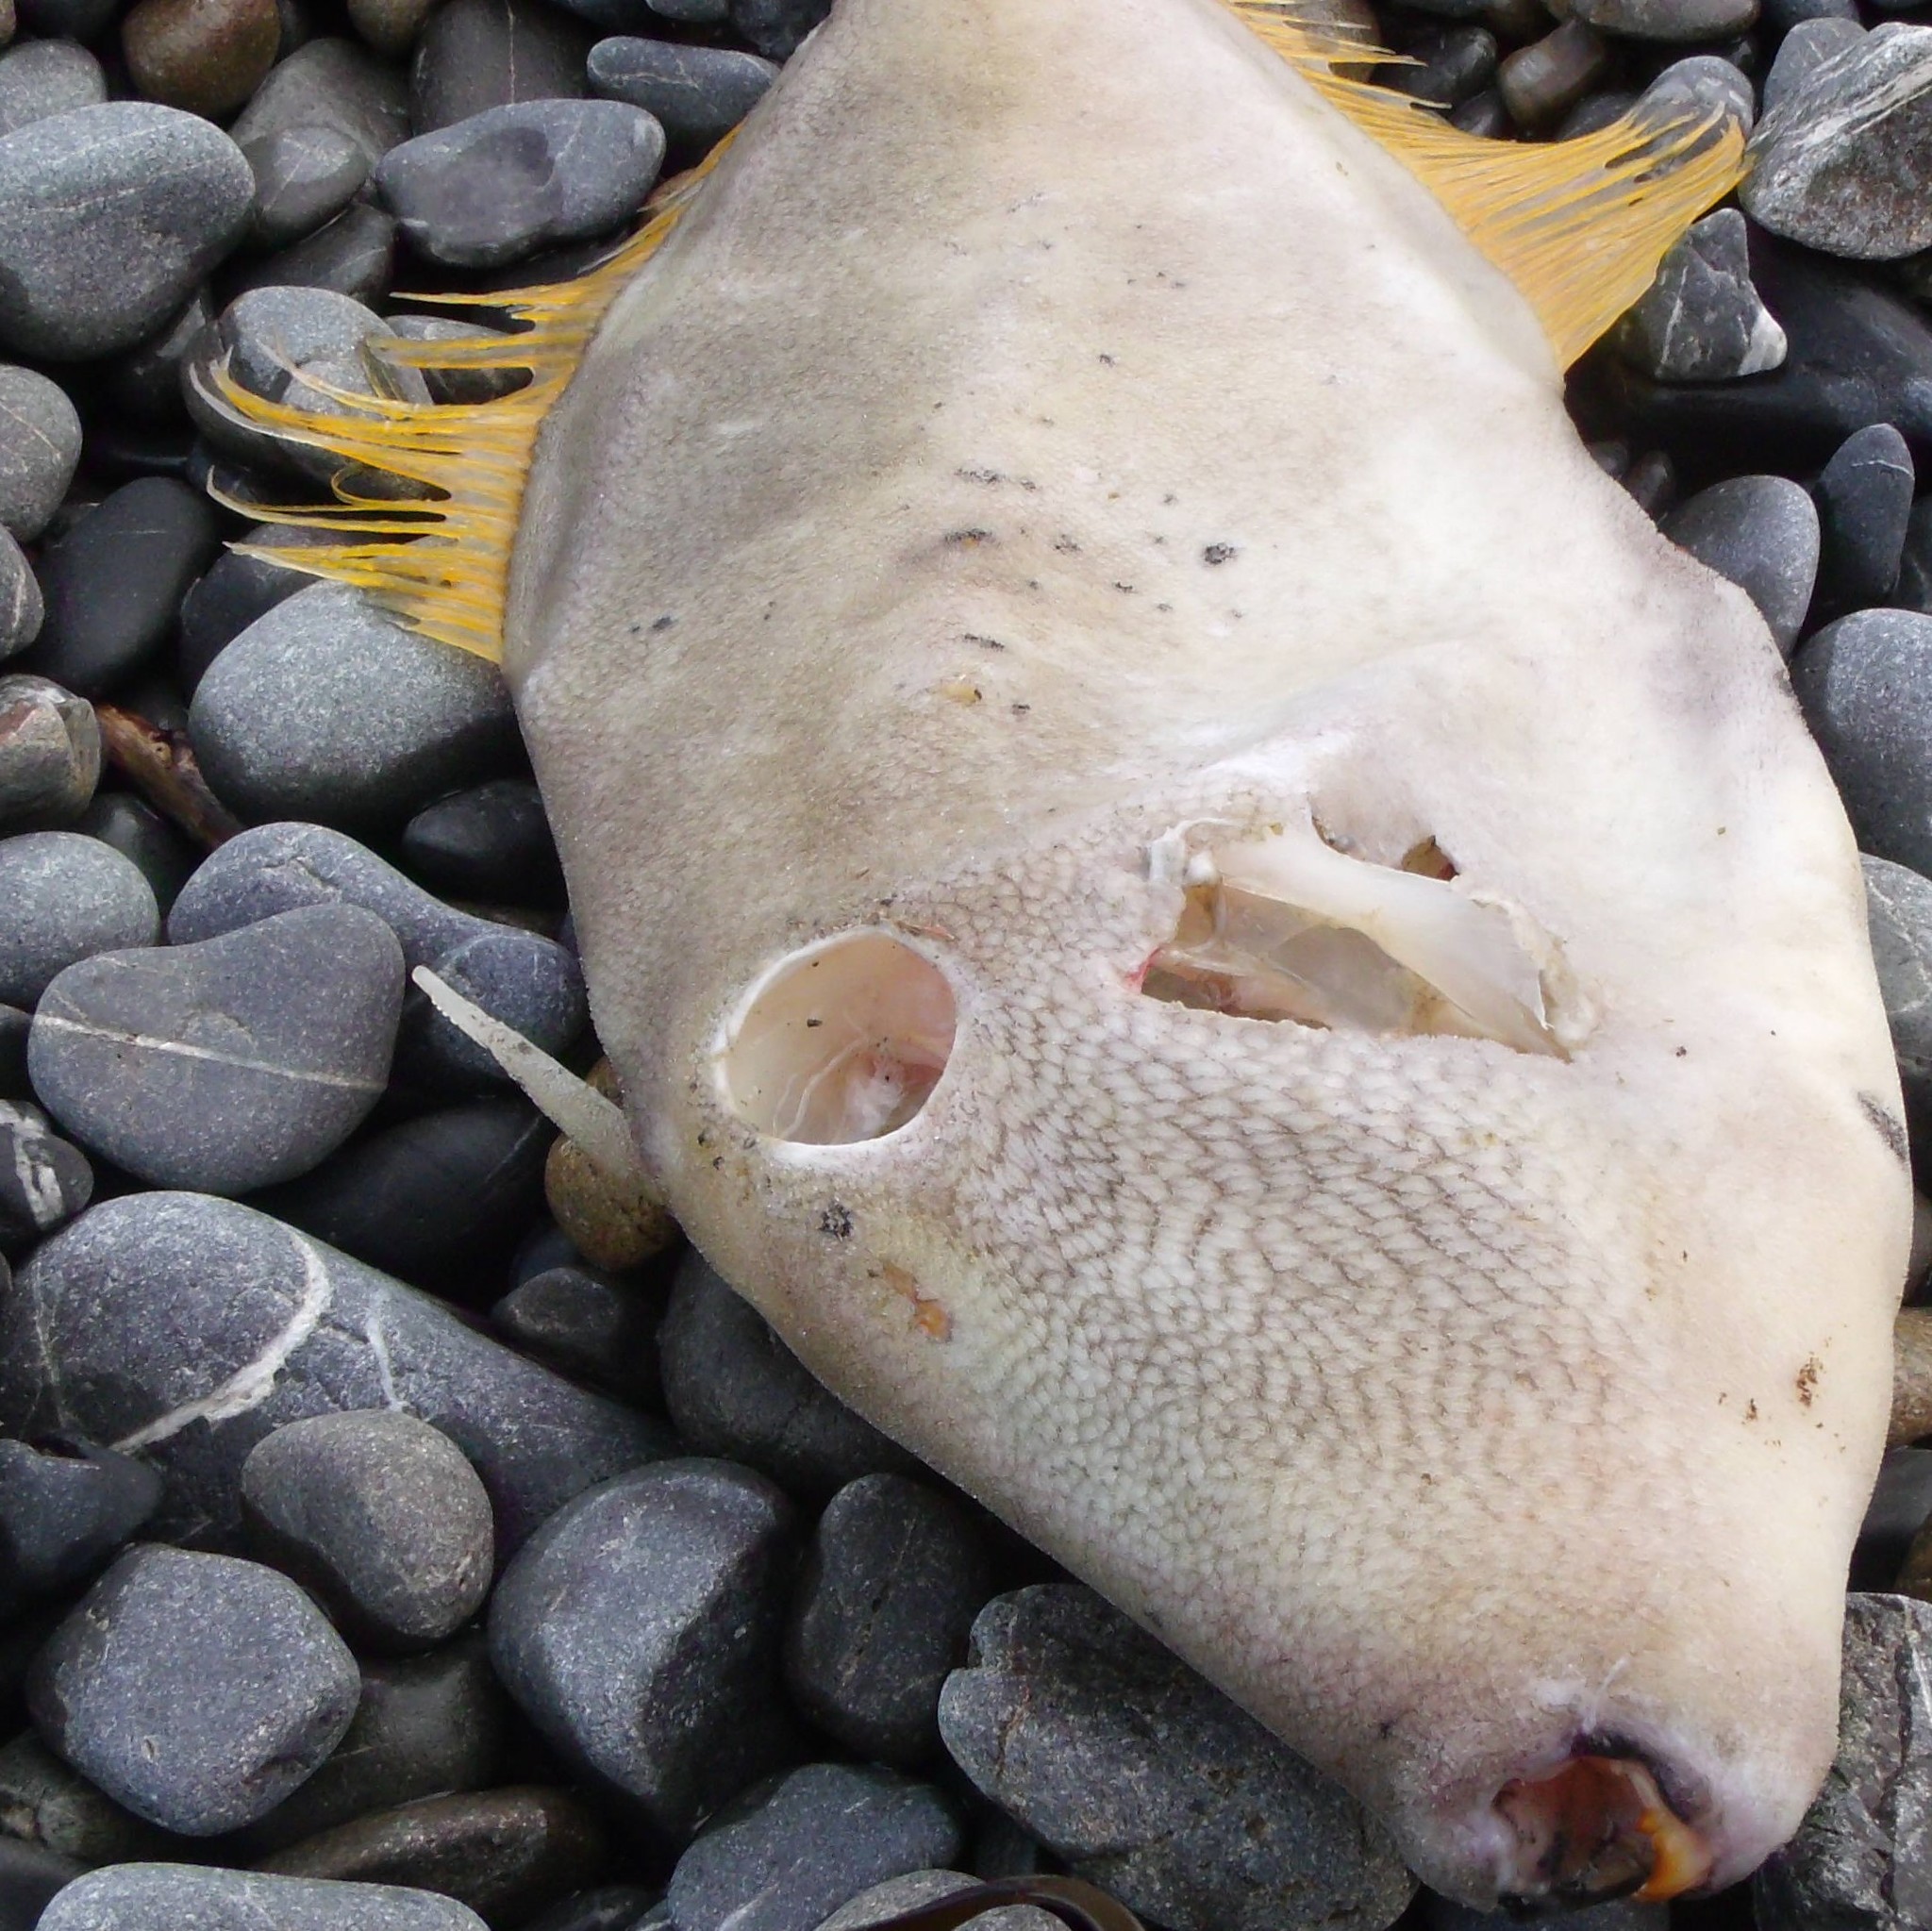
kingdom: Animalia
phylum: Chordata
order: Tetraodontiformes
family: Monacanthidae
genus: Meuschenia
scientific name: Meuschenia scaber
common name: Cosmopolitan leatherjacket
